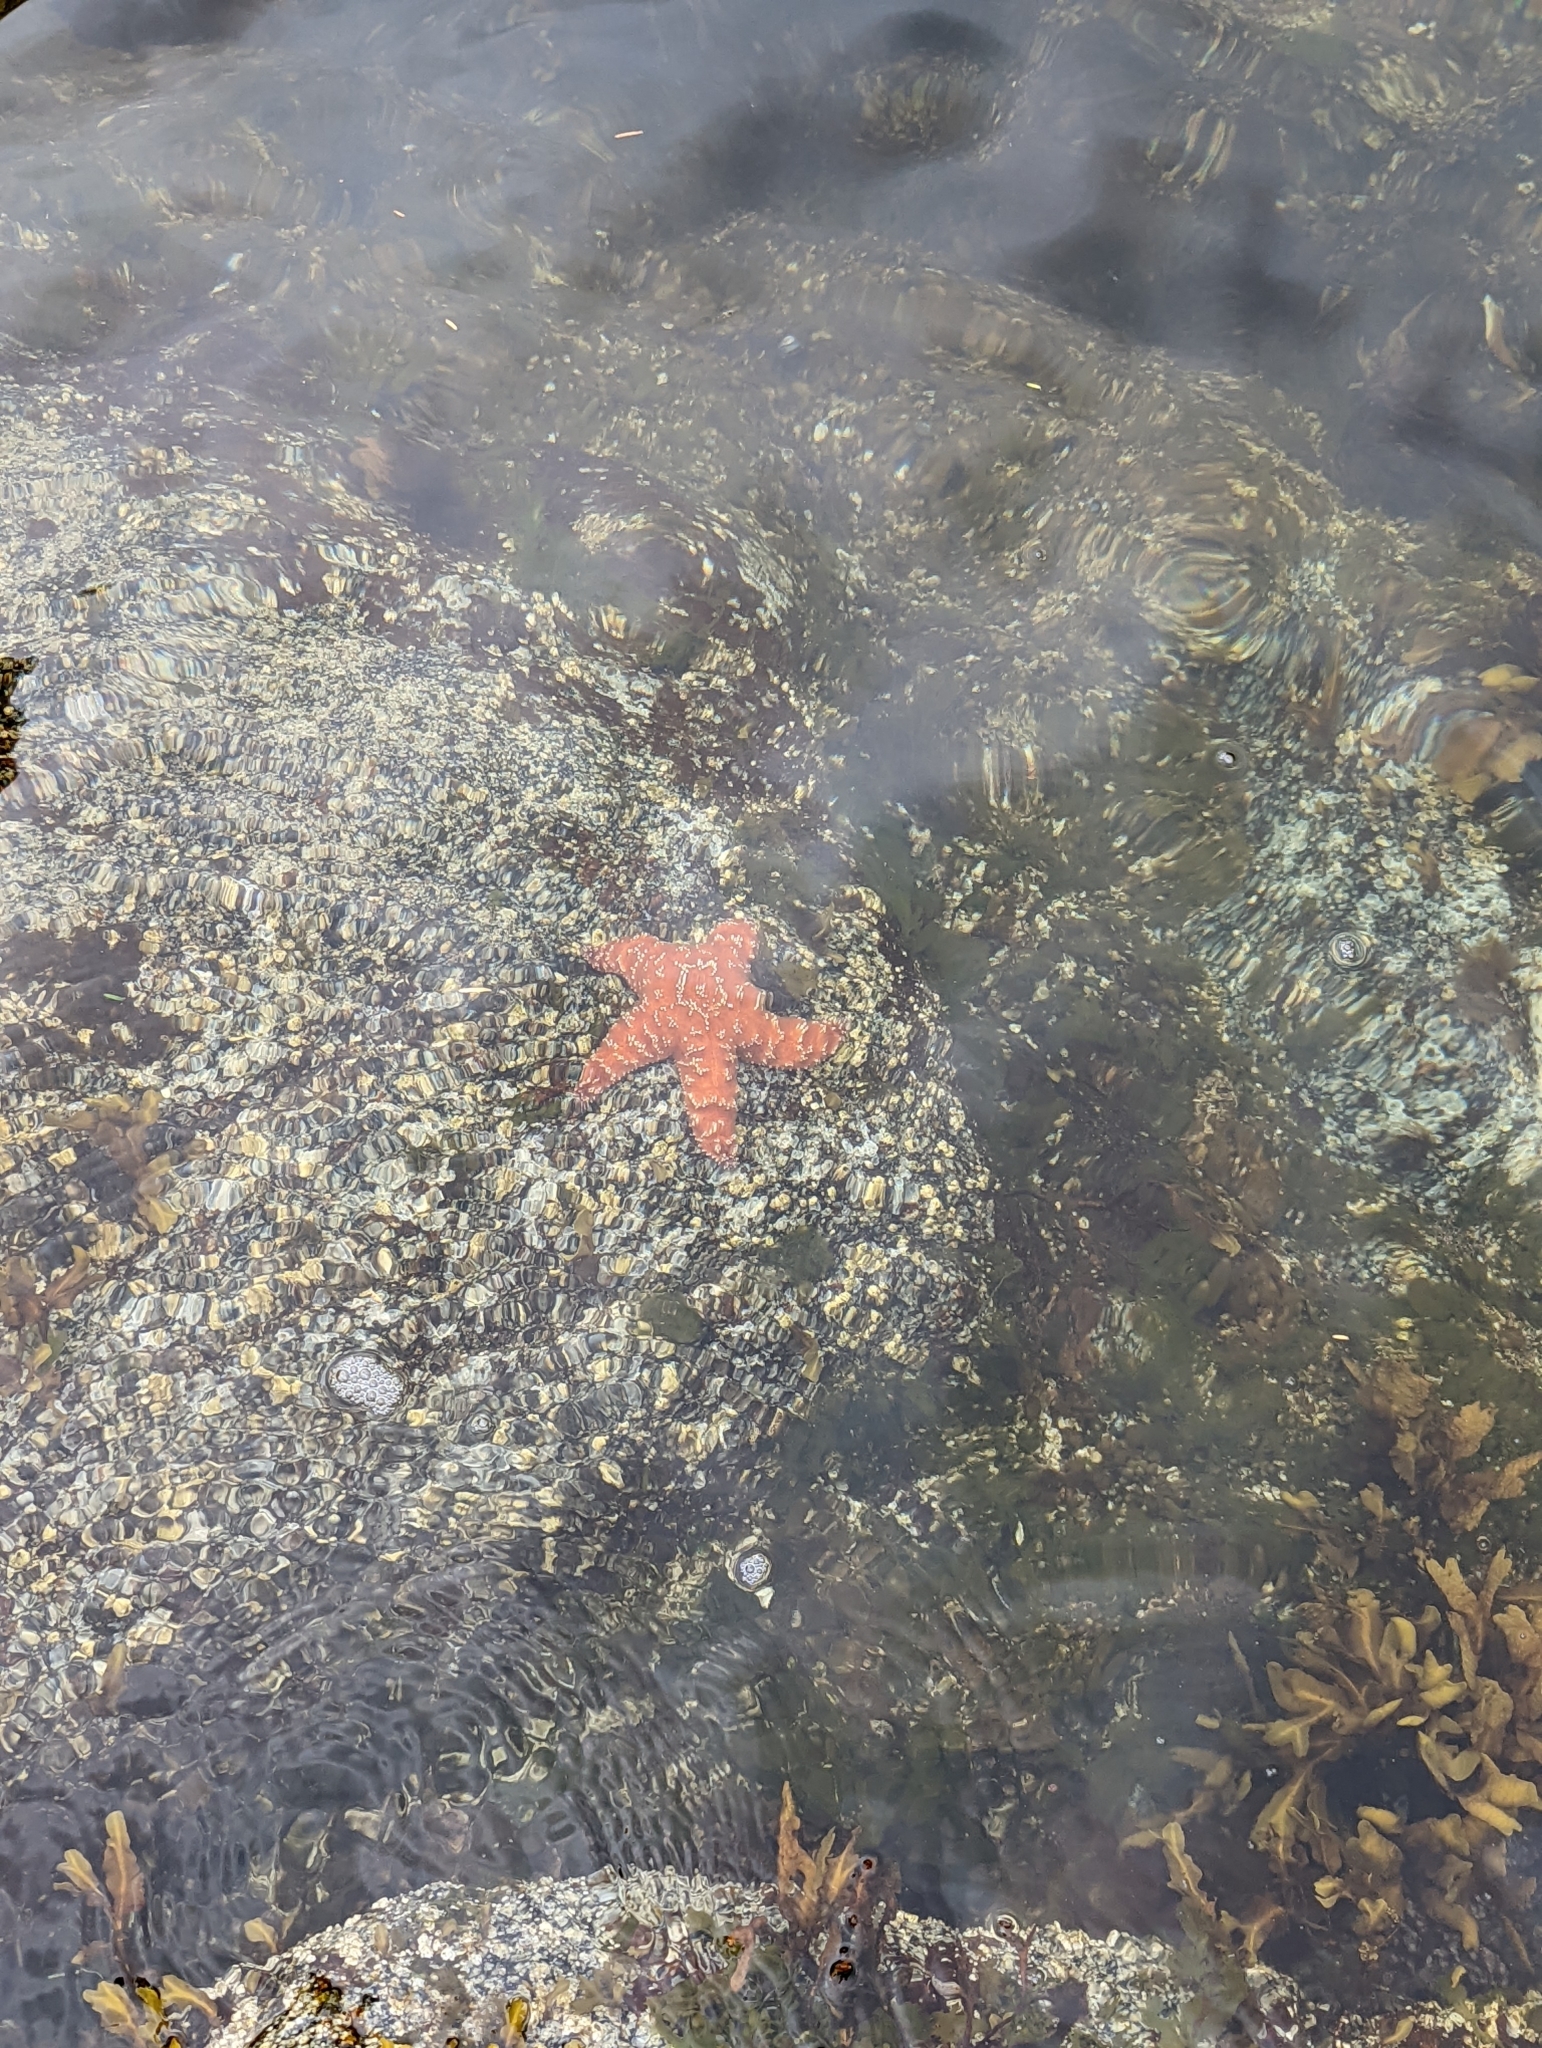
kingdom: Animalia
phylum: Echinodermata
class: Asteroidea
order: Forcipulatida
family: Asteriidae
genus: Pisaster
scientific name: Pisaster ochraceus
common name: Ochre stars
